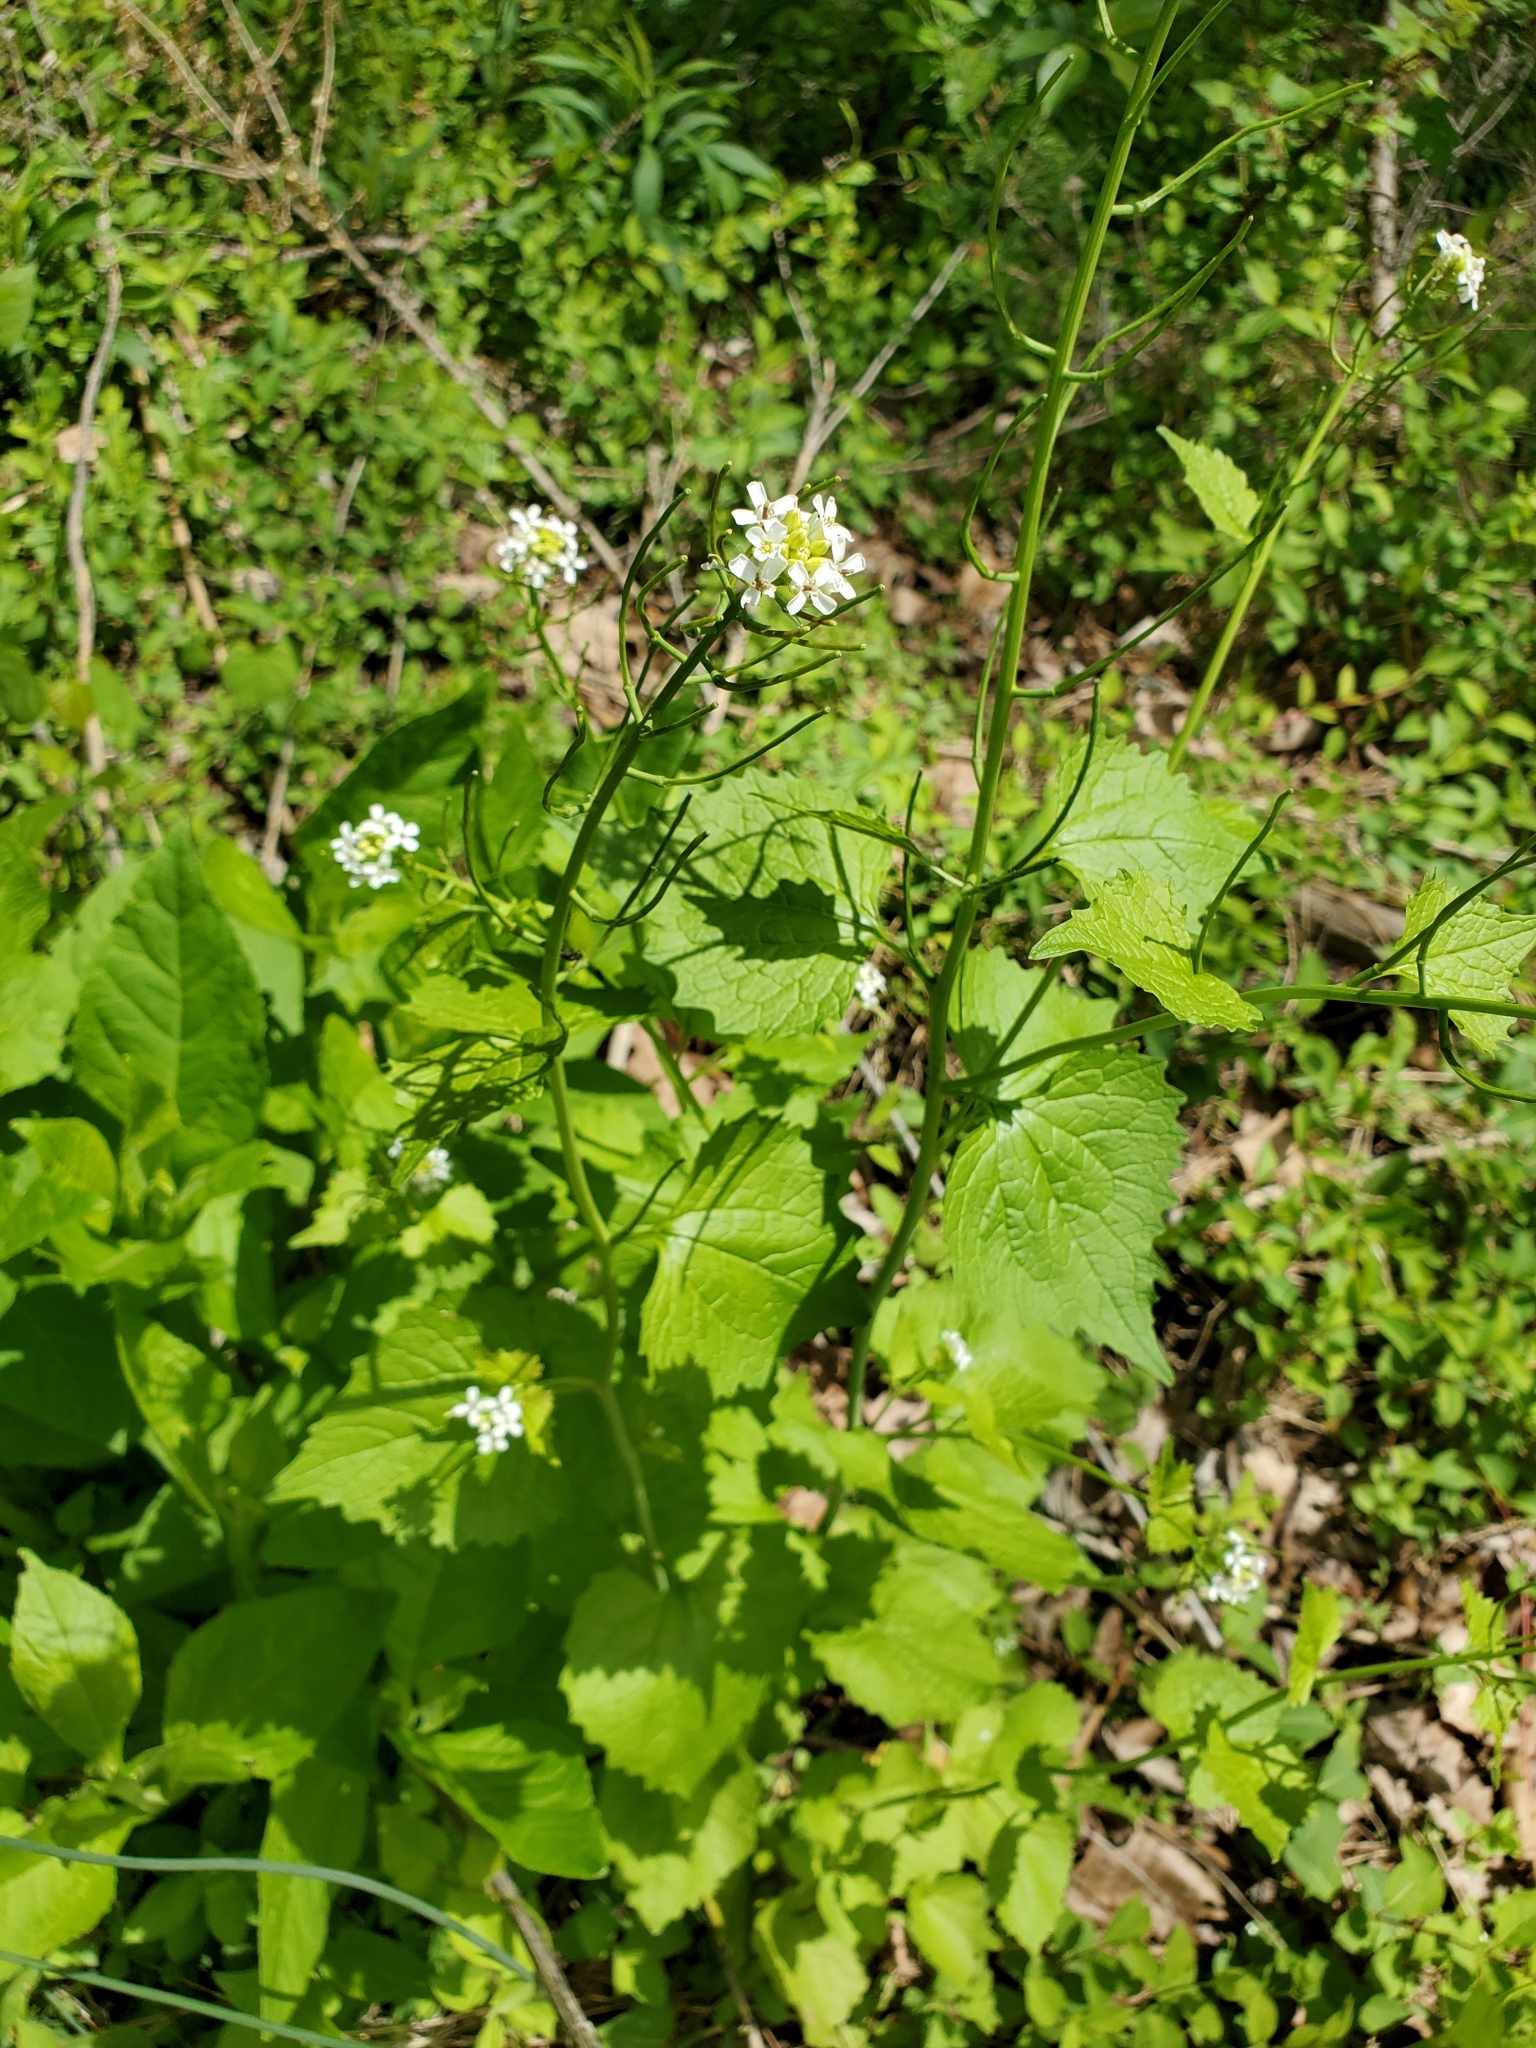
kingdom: Plantae
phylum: Tracheophyta
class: Magnoliopsida
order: Brassicales
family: Brassicaceae
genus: Alliaria
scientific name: Alliaria petiolata
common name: Garlic mustard
